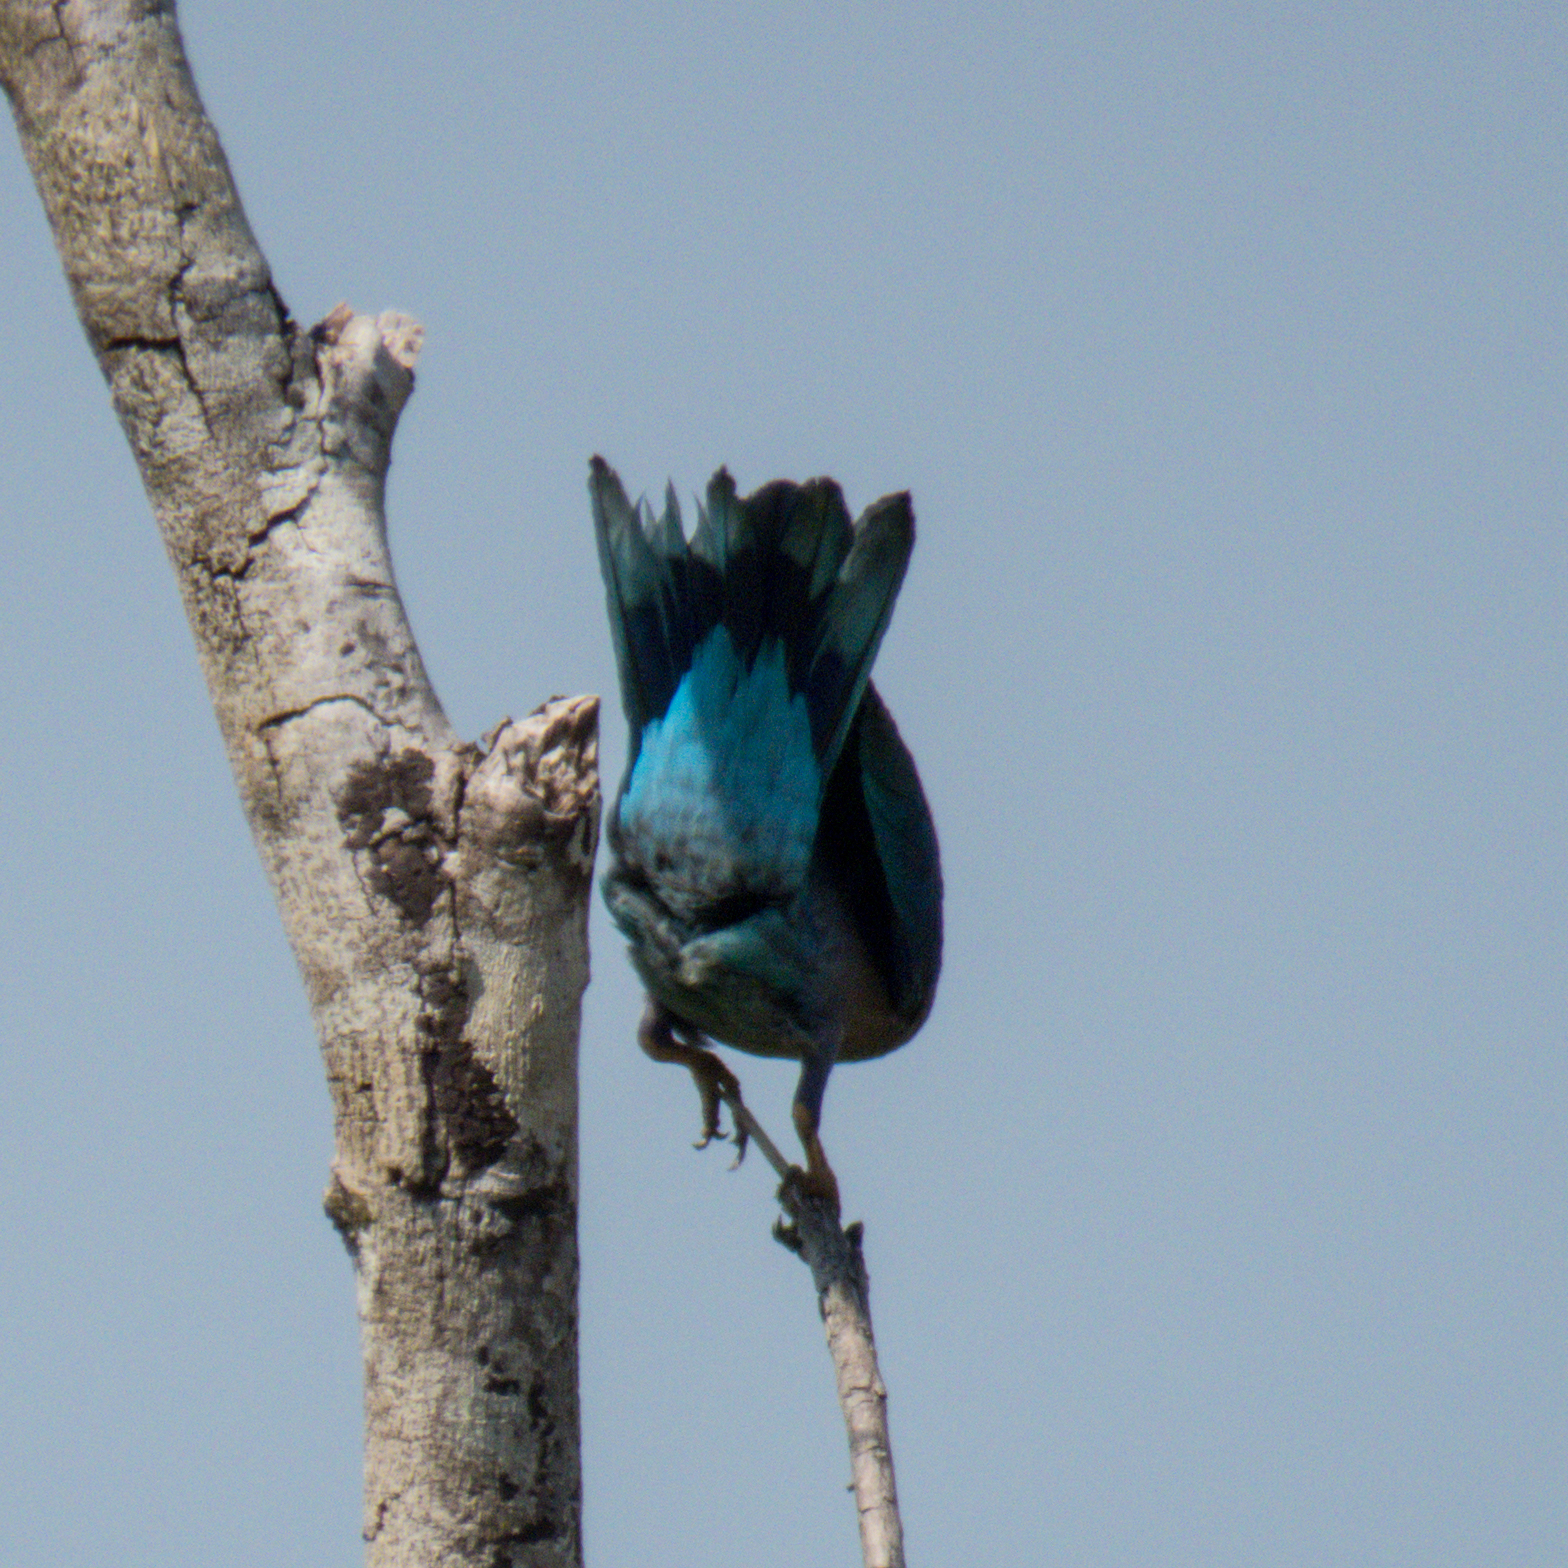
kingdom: Animalia
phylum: Chordata
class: Aves
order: Coraciiformes
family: Coraciidae
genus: Coracias
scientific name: Coracias affinis
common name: Indochinese roller
